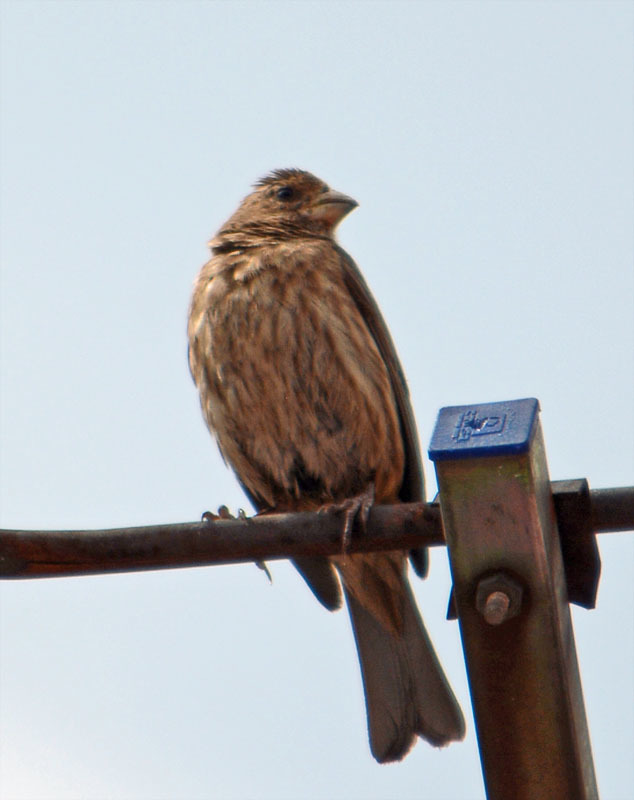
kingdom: Animalia
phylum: Chordata
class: Aves
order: Passeriformes
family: Fringillidae
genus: Haemorhous
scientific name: Haemorhous mexicanus
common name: House finch
